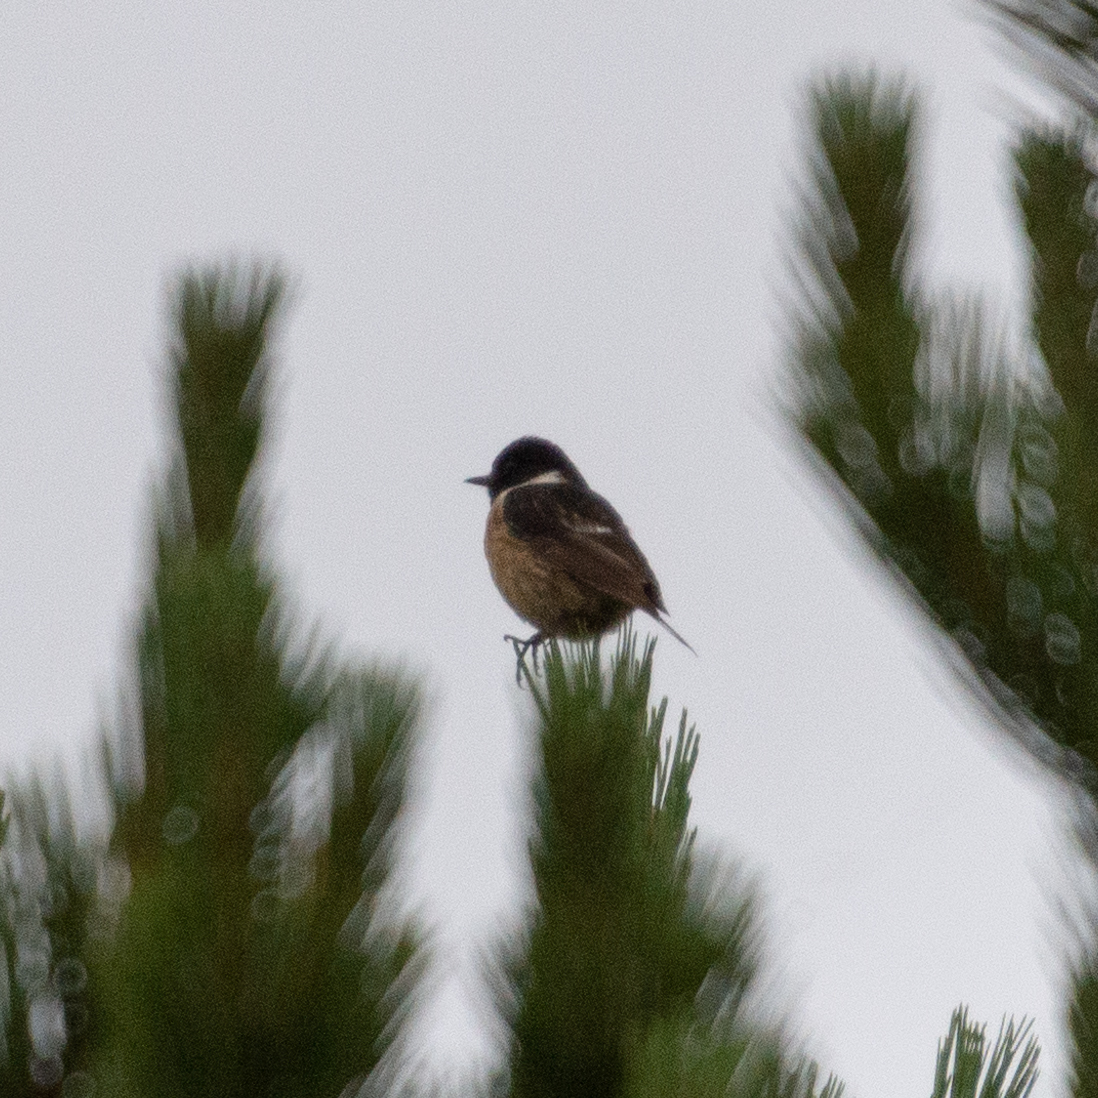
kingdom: Animalia
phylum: Chordata
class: Aves
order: Passeriformes
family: Muscicapidae
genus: Saxicola
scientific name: Saxicola rubicola
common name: European stonechat
